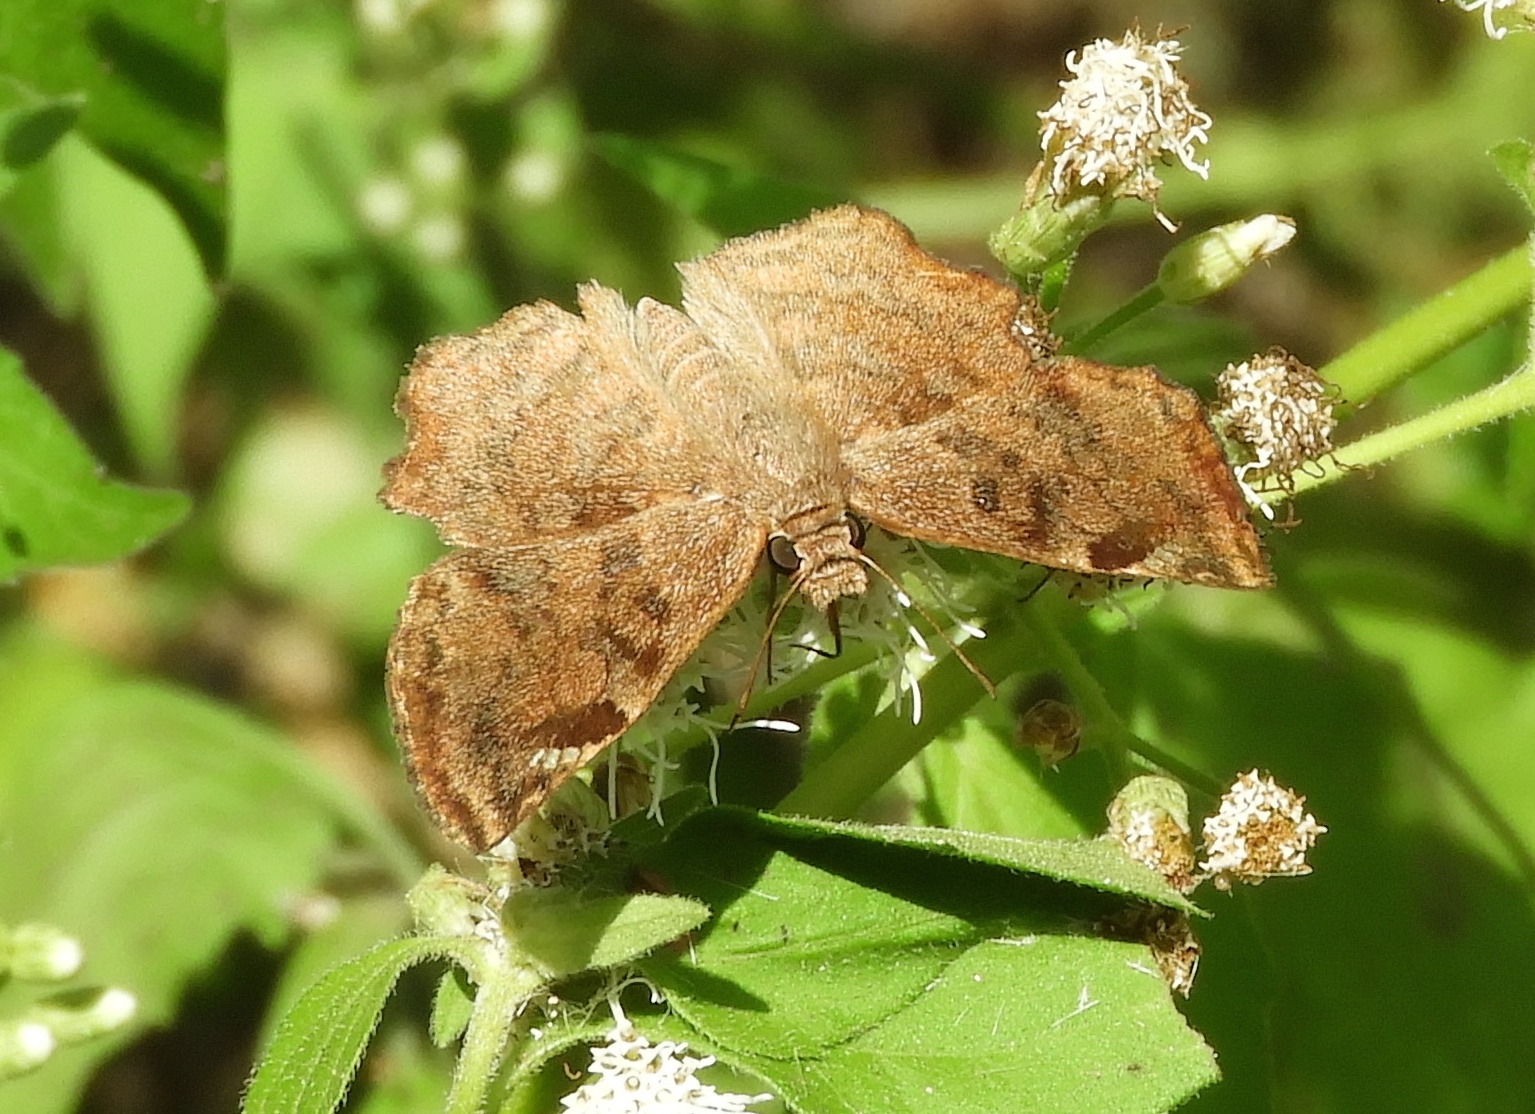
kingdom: Animalia
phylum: Arthropoda
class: Insecta
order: Lepidoptera
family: Hesperiidae
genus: Antigonus
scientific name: Antigonus erosus
